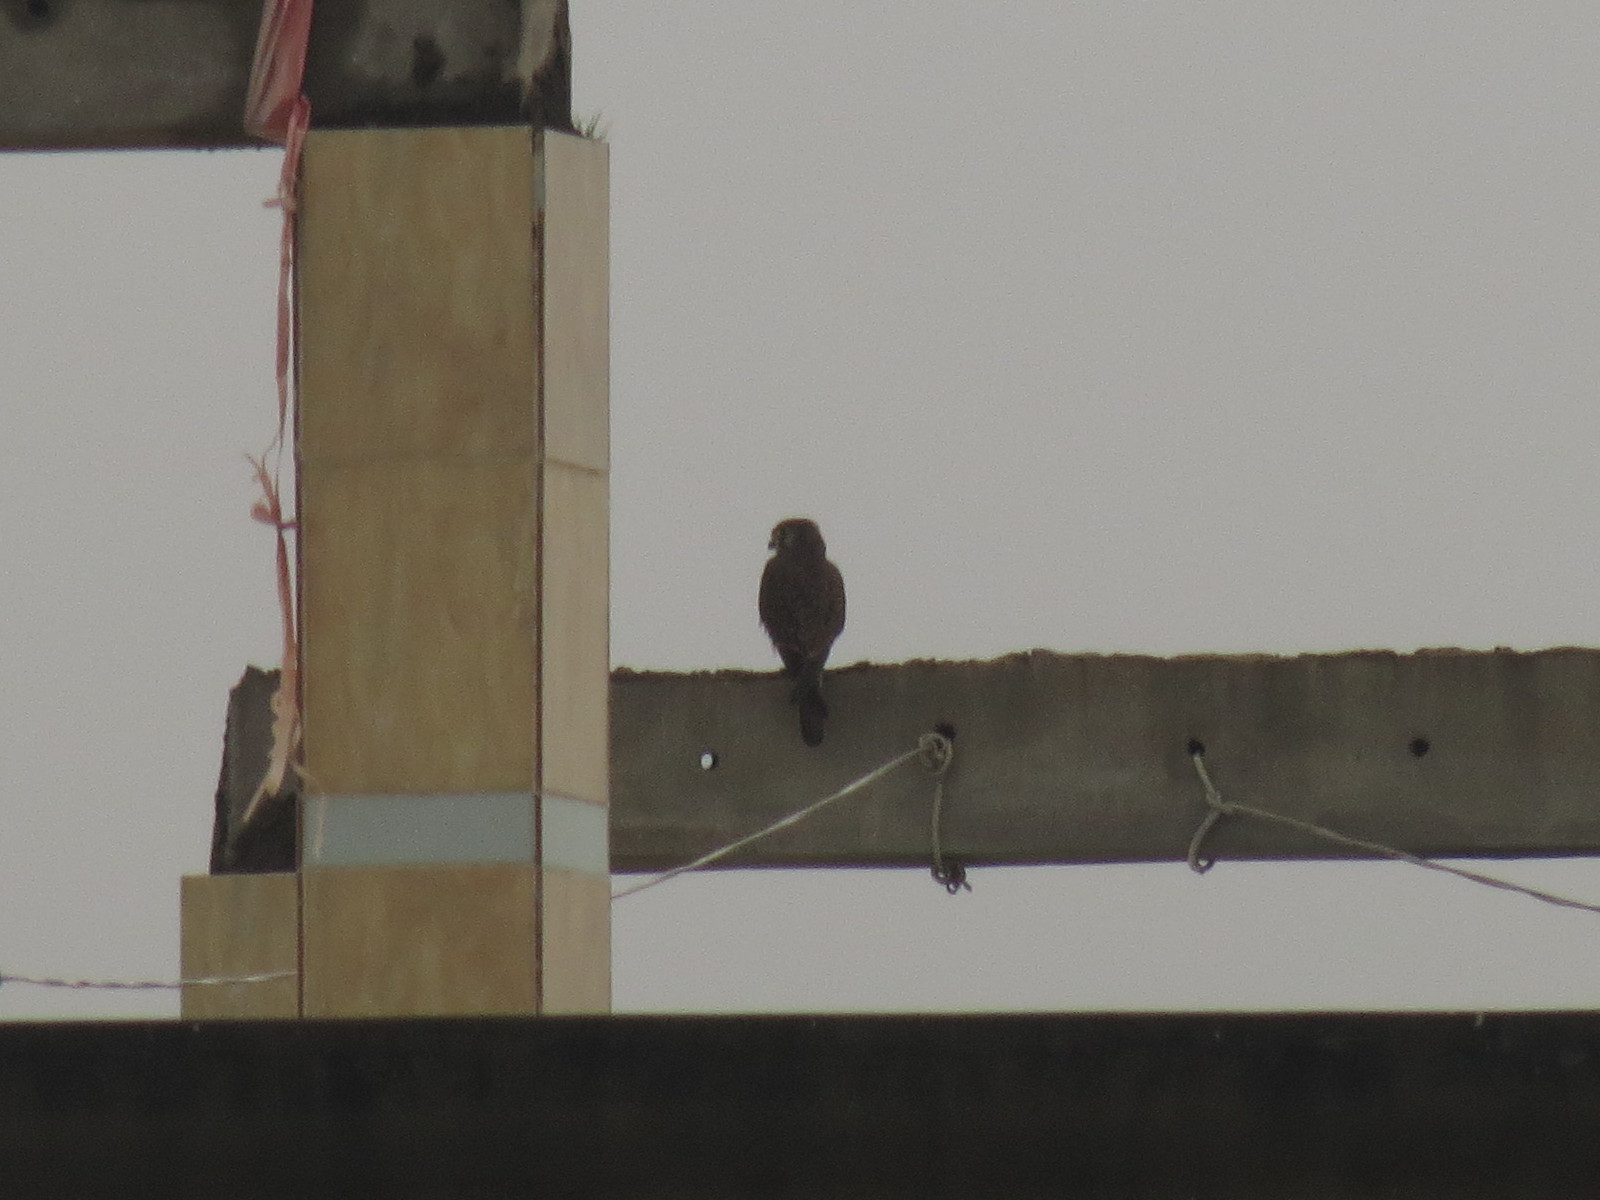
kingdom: Animalia
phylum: Chordata
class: Aves
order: Falconiformes
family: Falconidae
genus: Falco
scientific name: Falco tinnunculus
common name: Common kestrel
